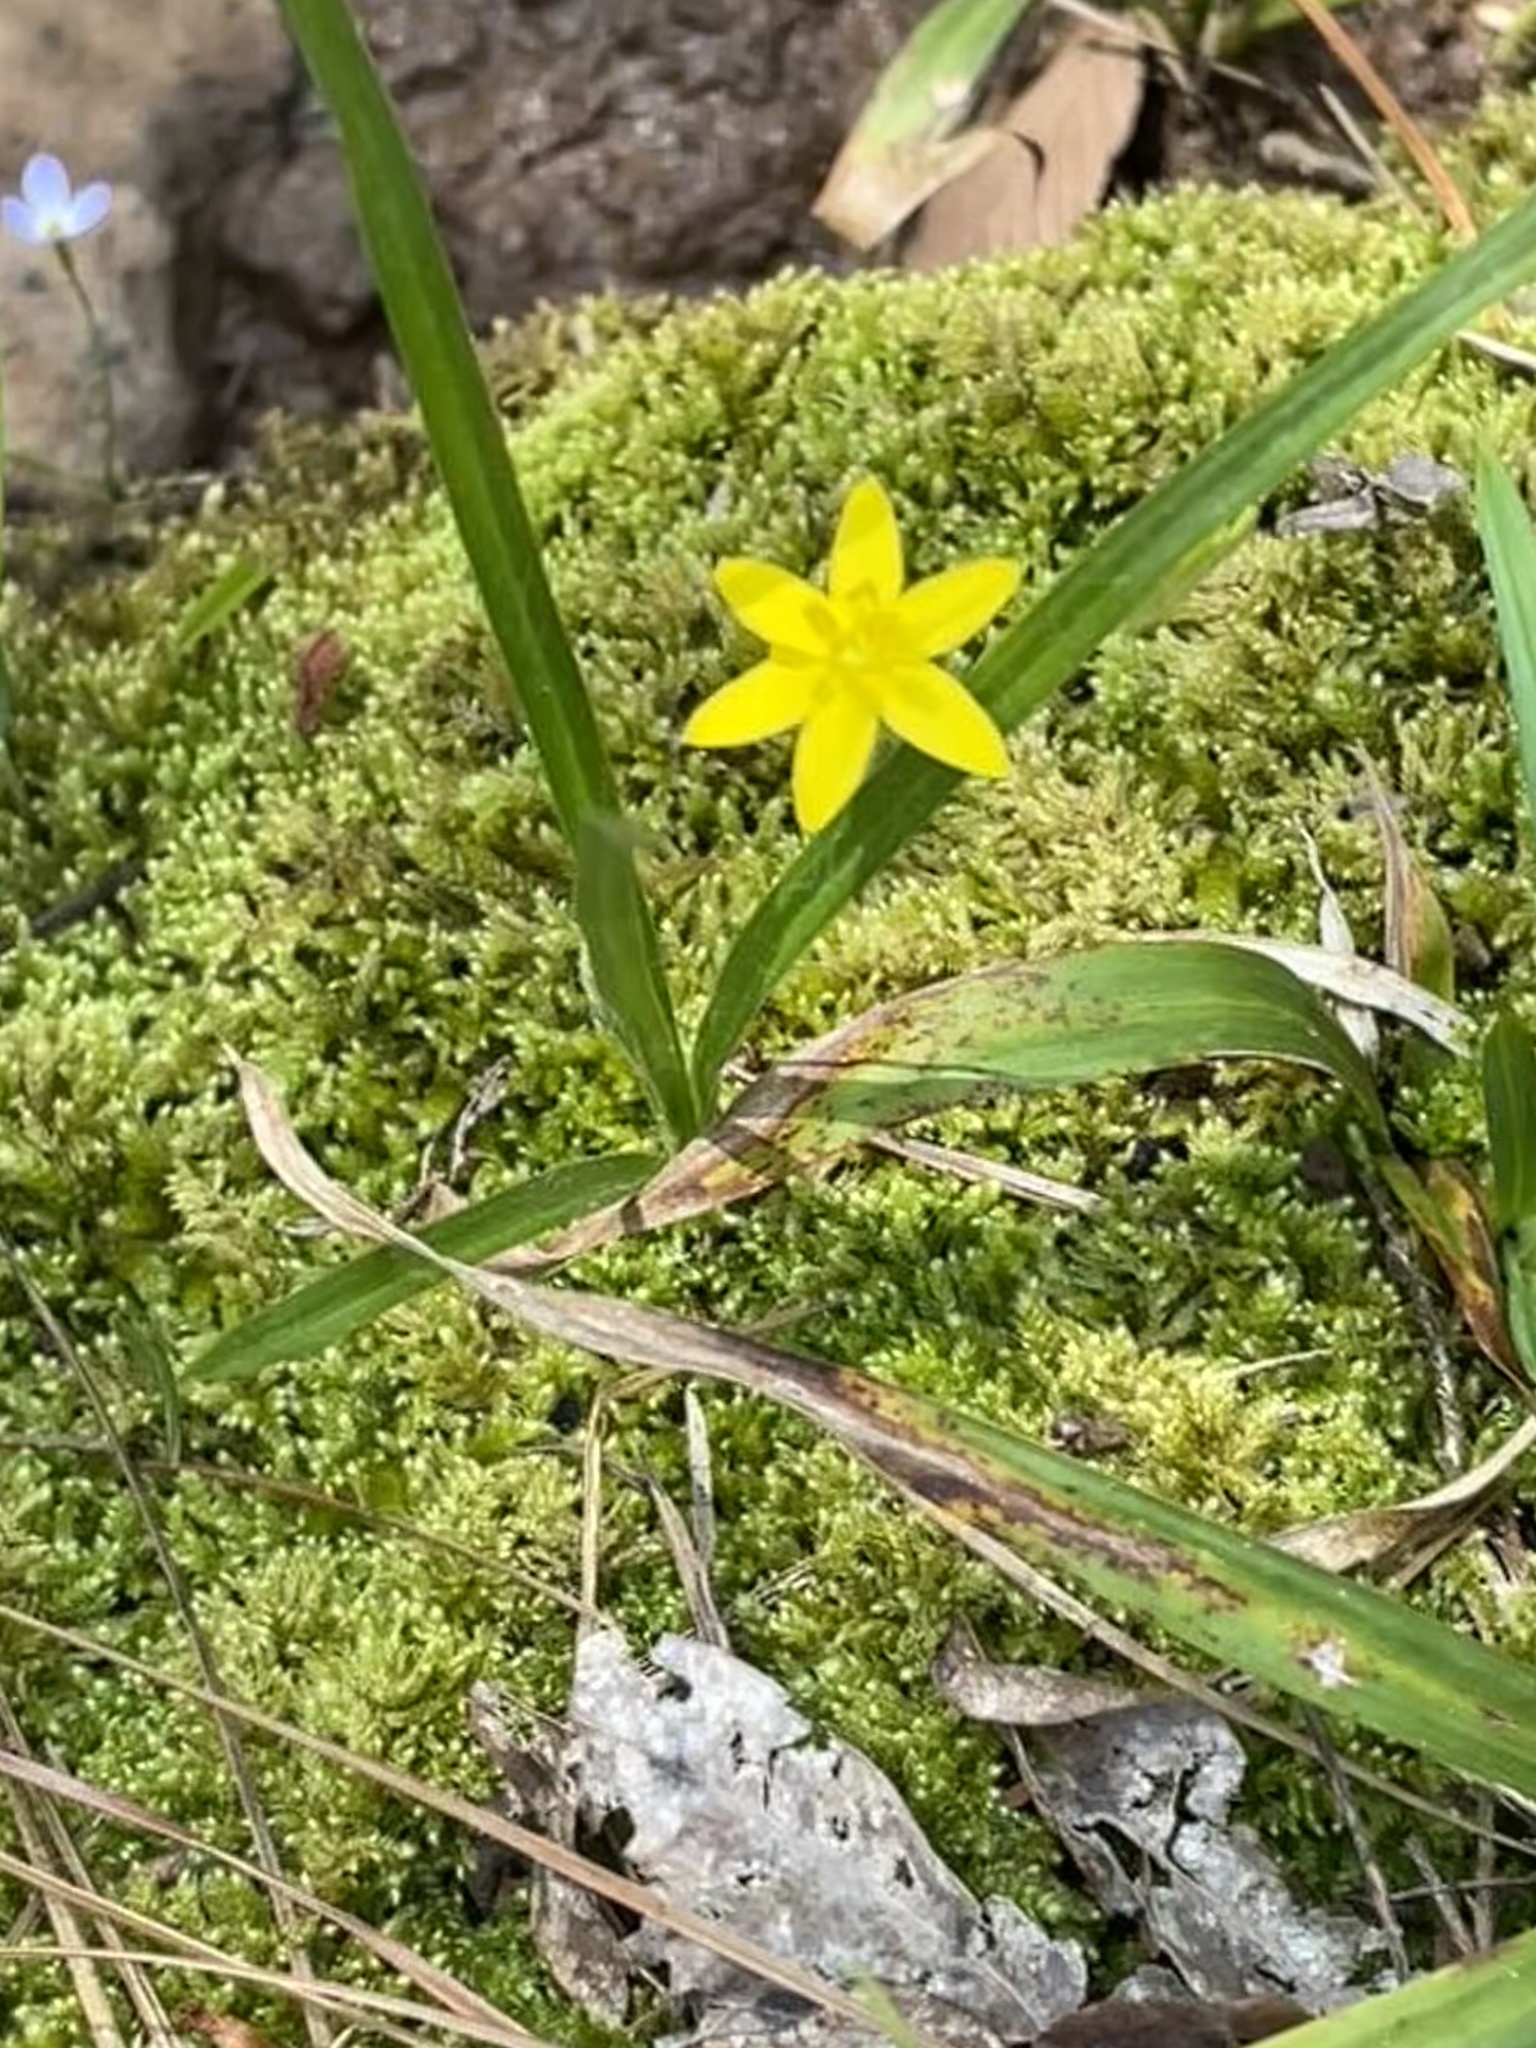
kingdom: Plantae
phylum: Tracheophyta
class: Liliopsida
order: Asparagales
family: Hypoxidaceae
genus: Hypoxis
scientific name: Hypoxis hirsuta
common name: Common goldstar
